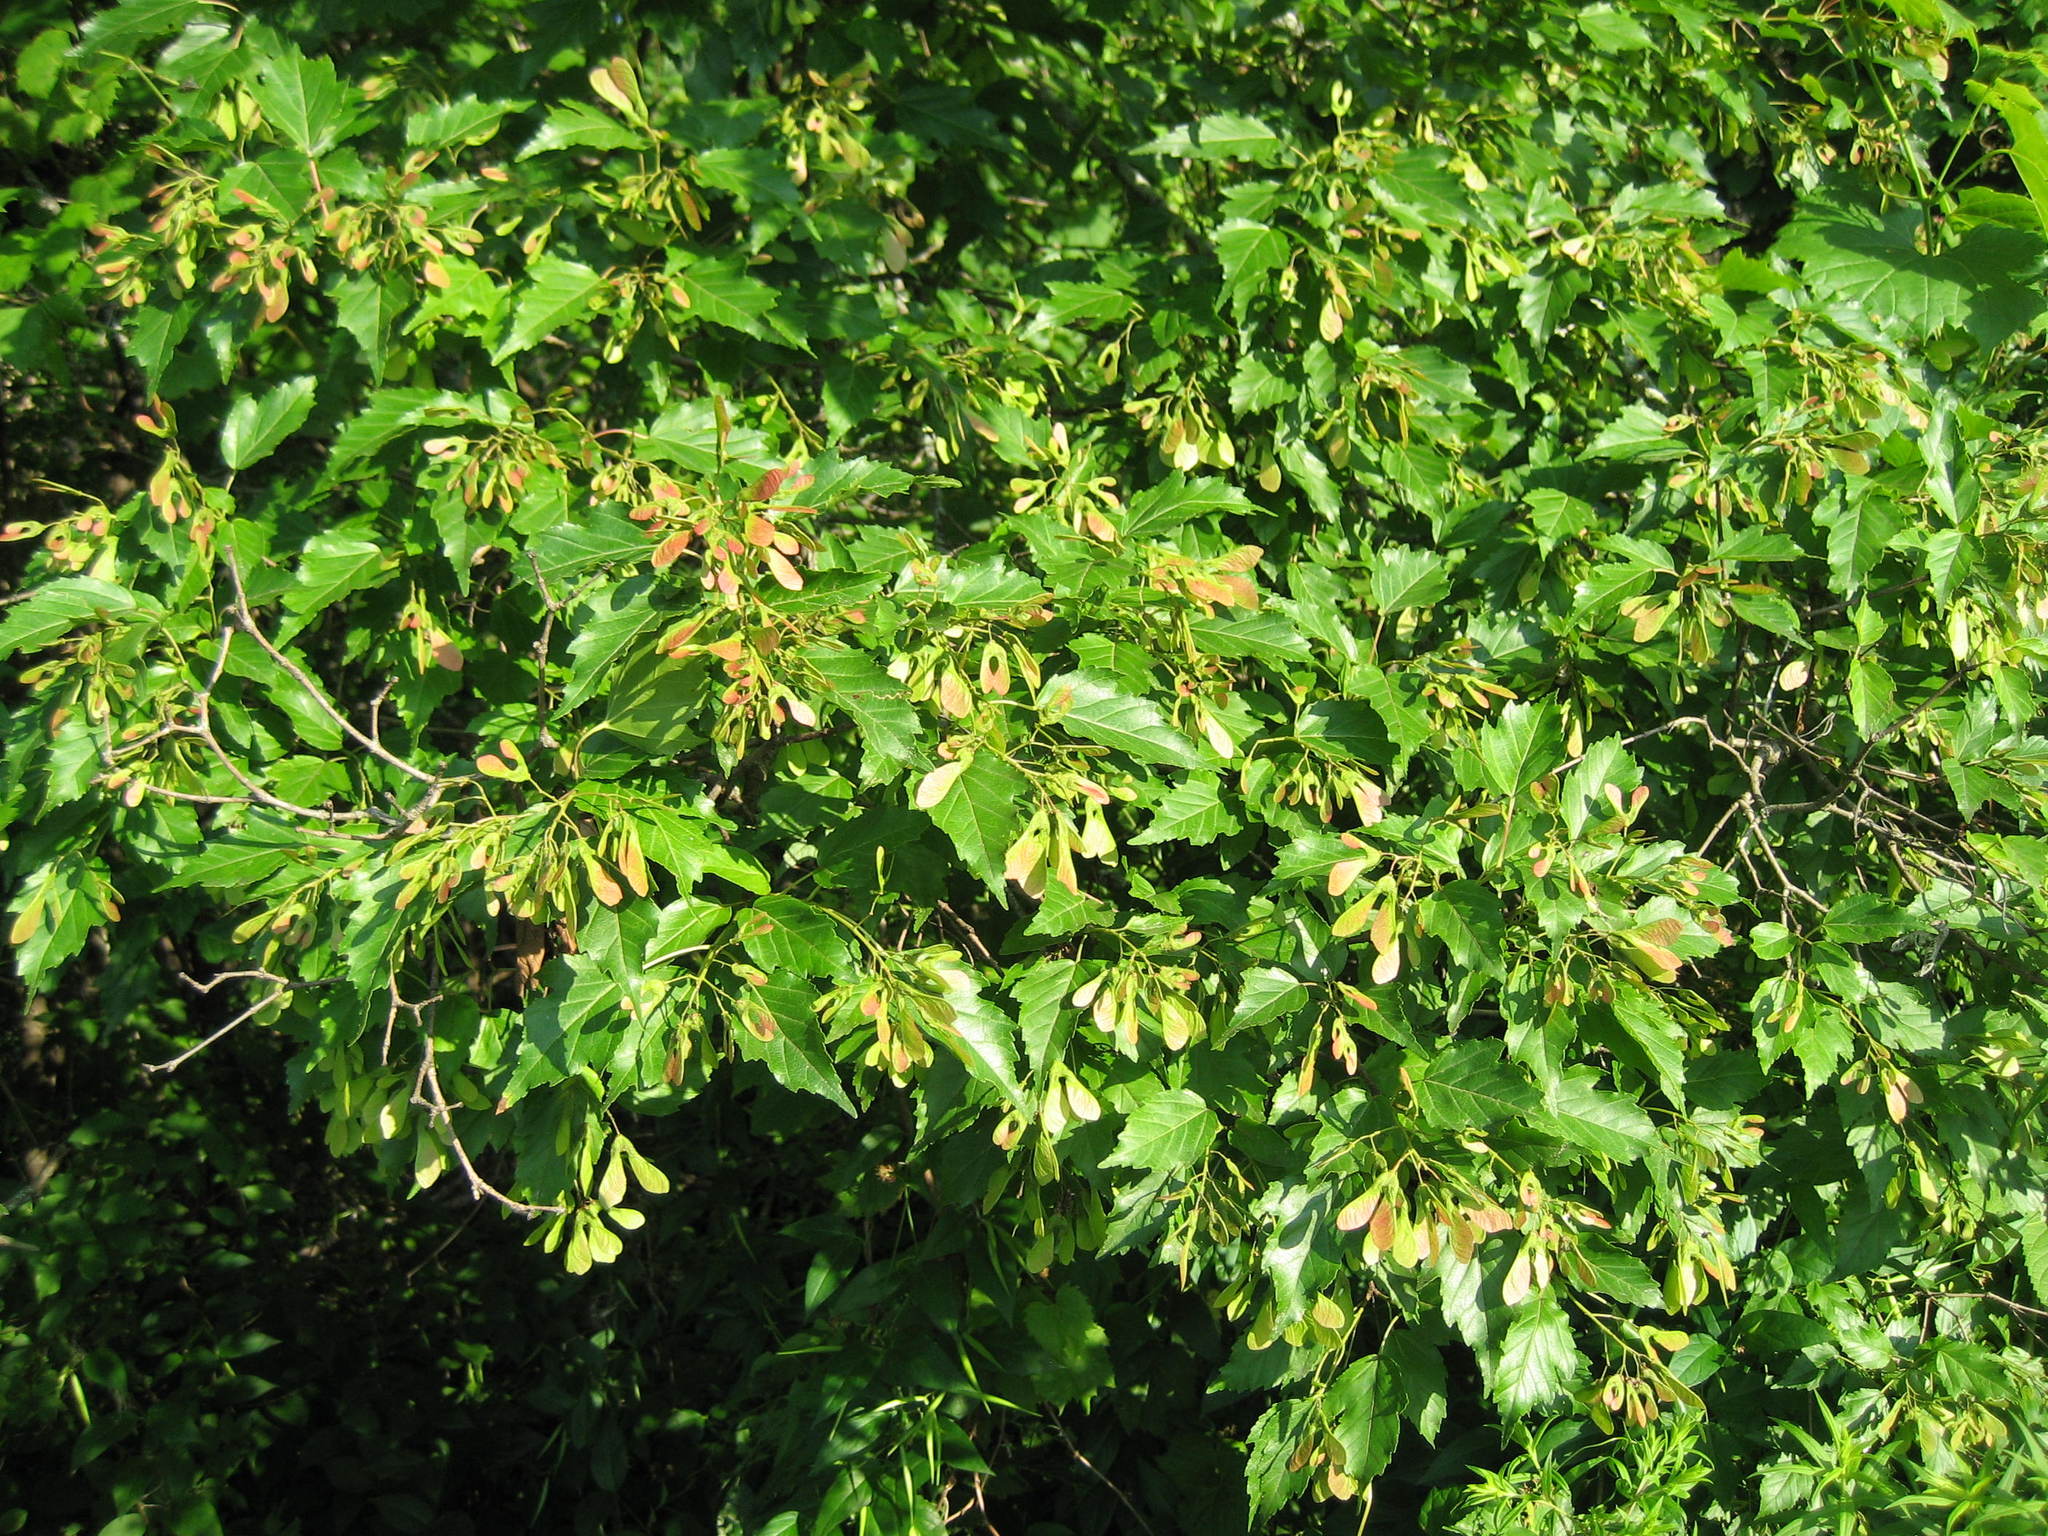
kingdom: Plantae
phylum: Tracheophyta
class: Magnoliopsida
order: Sapindales
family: Sapindaceae
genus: Acer
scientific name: Acer tataricum
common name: Tartar maple
